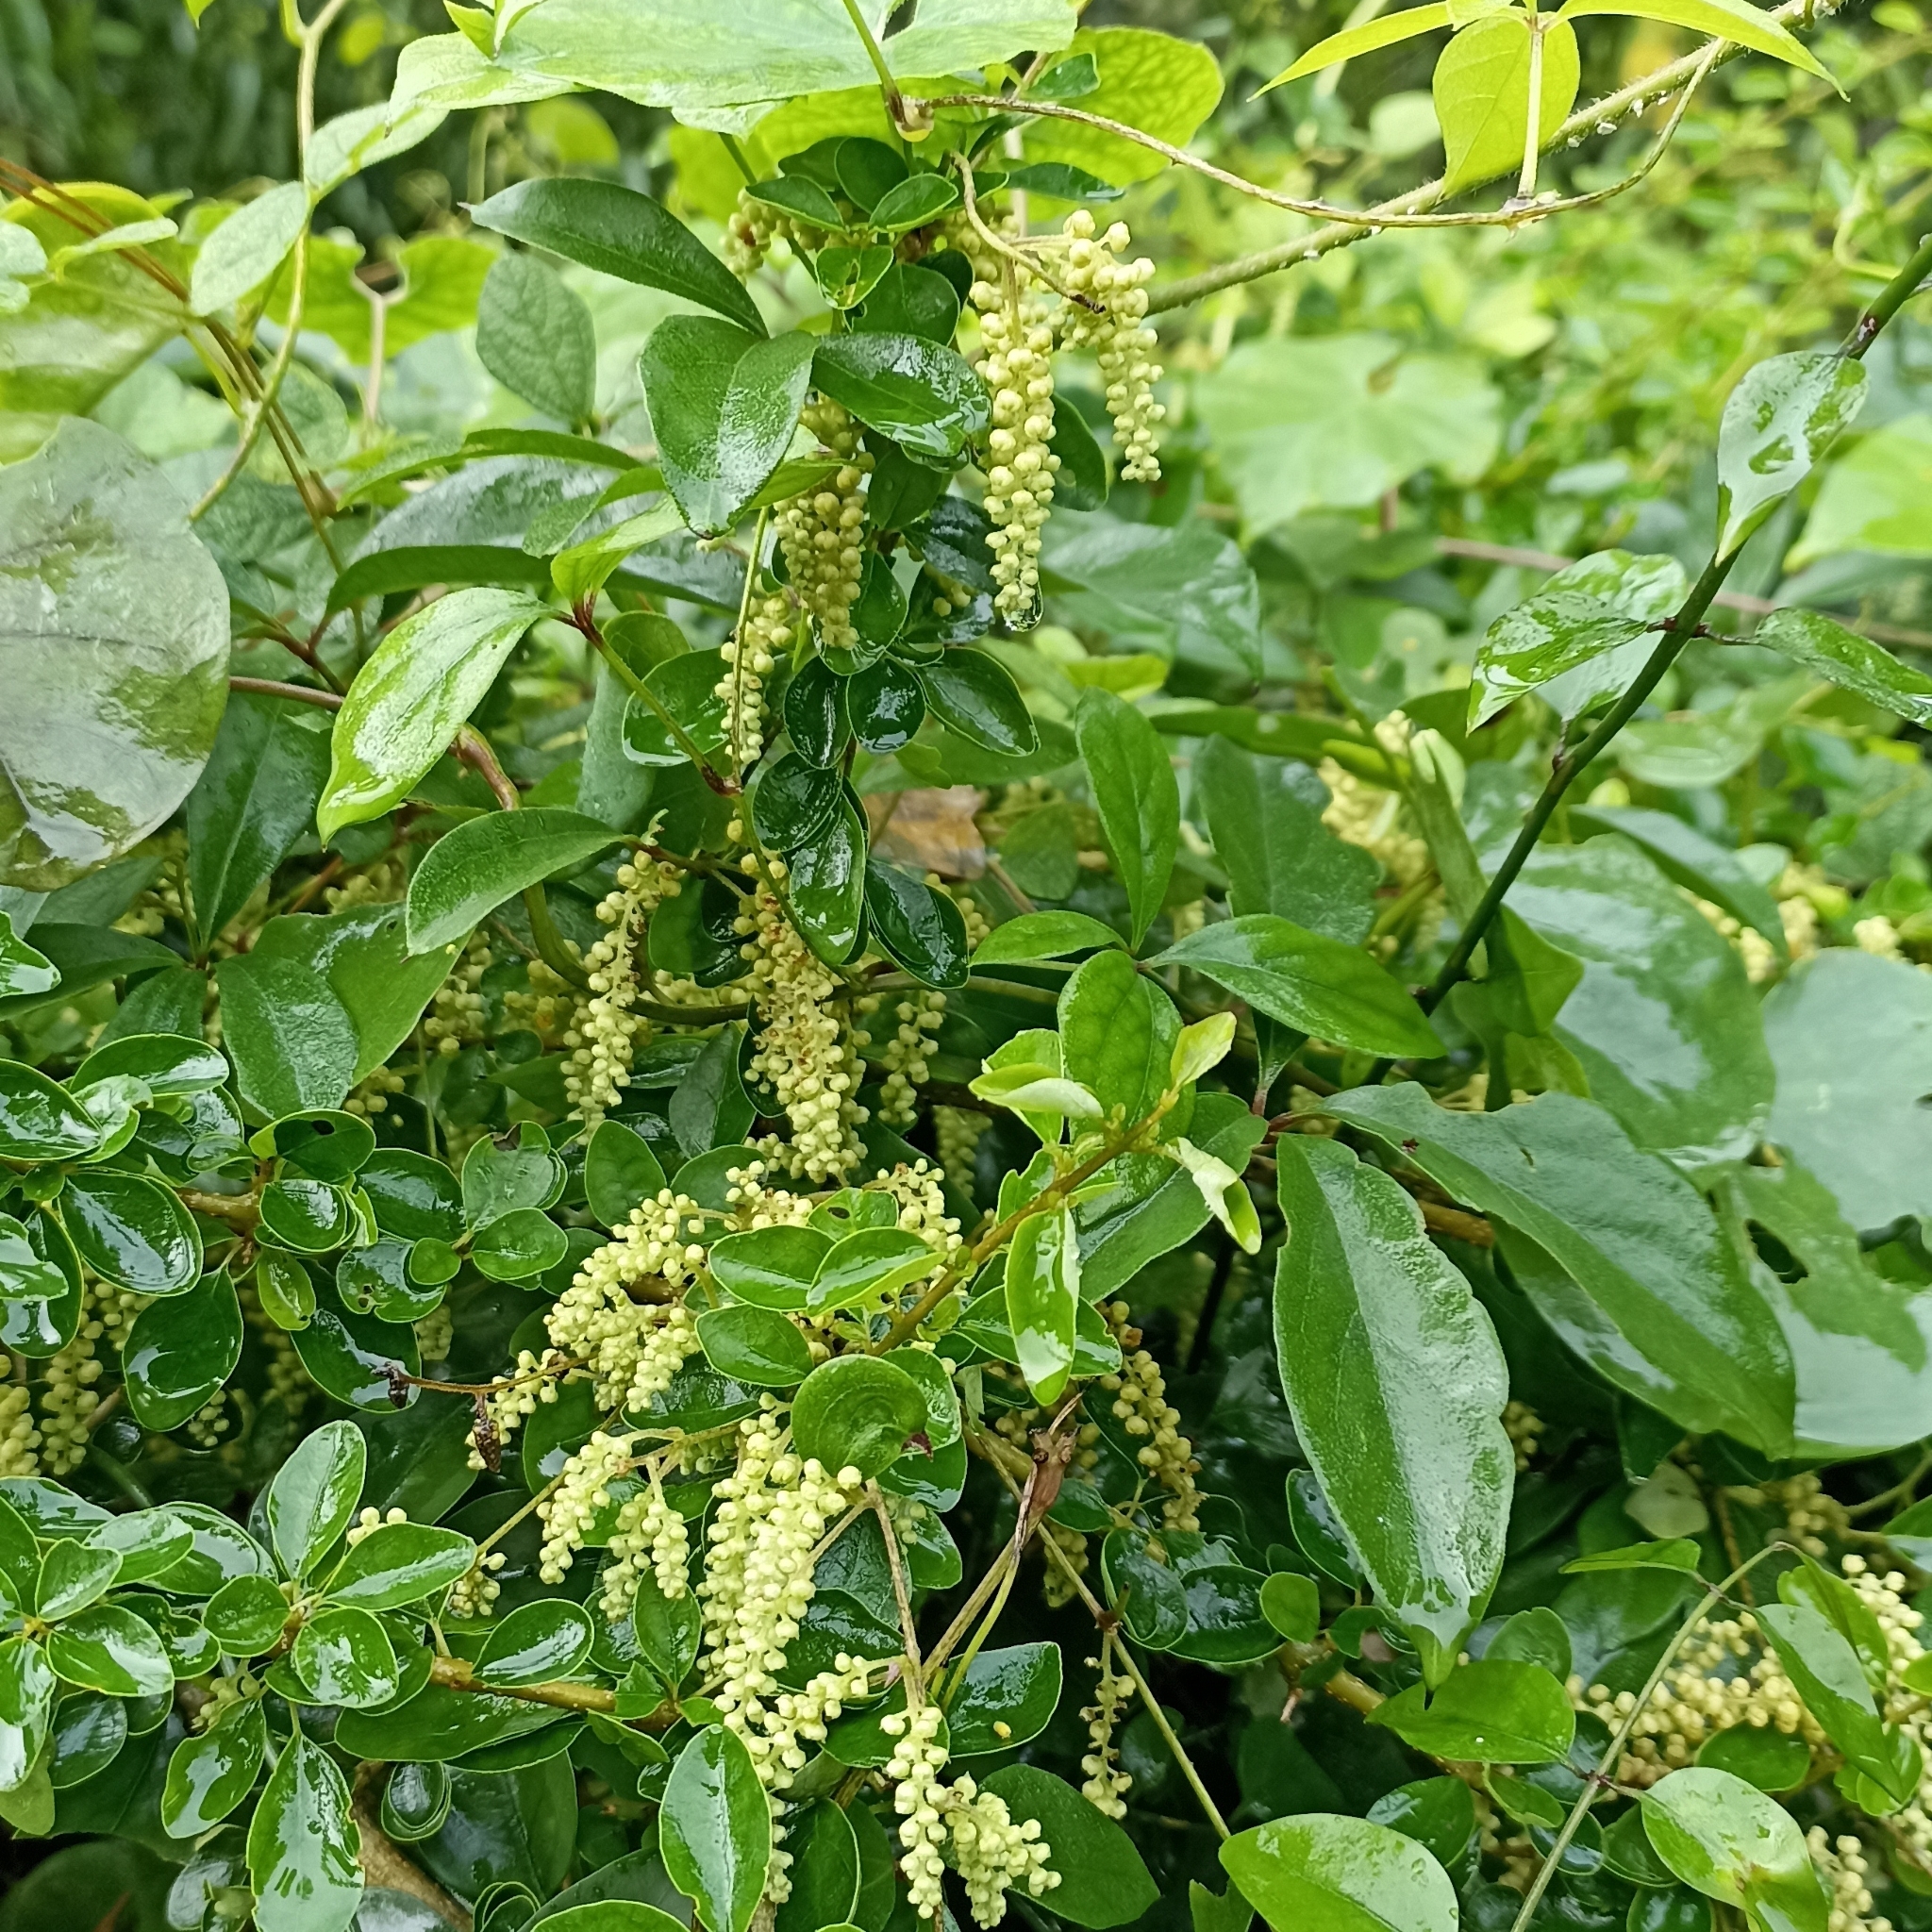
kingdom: Plantae
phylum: Tracheophyta
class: Liliopsida
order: Dioscoreales
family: Dioscoreaceae
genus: Dioscorea
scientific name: Dioscorea pentaphylla
